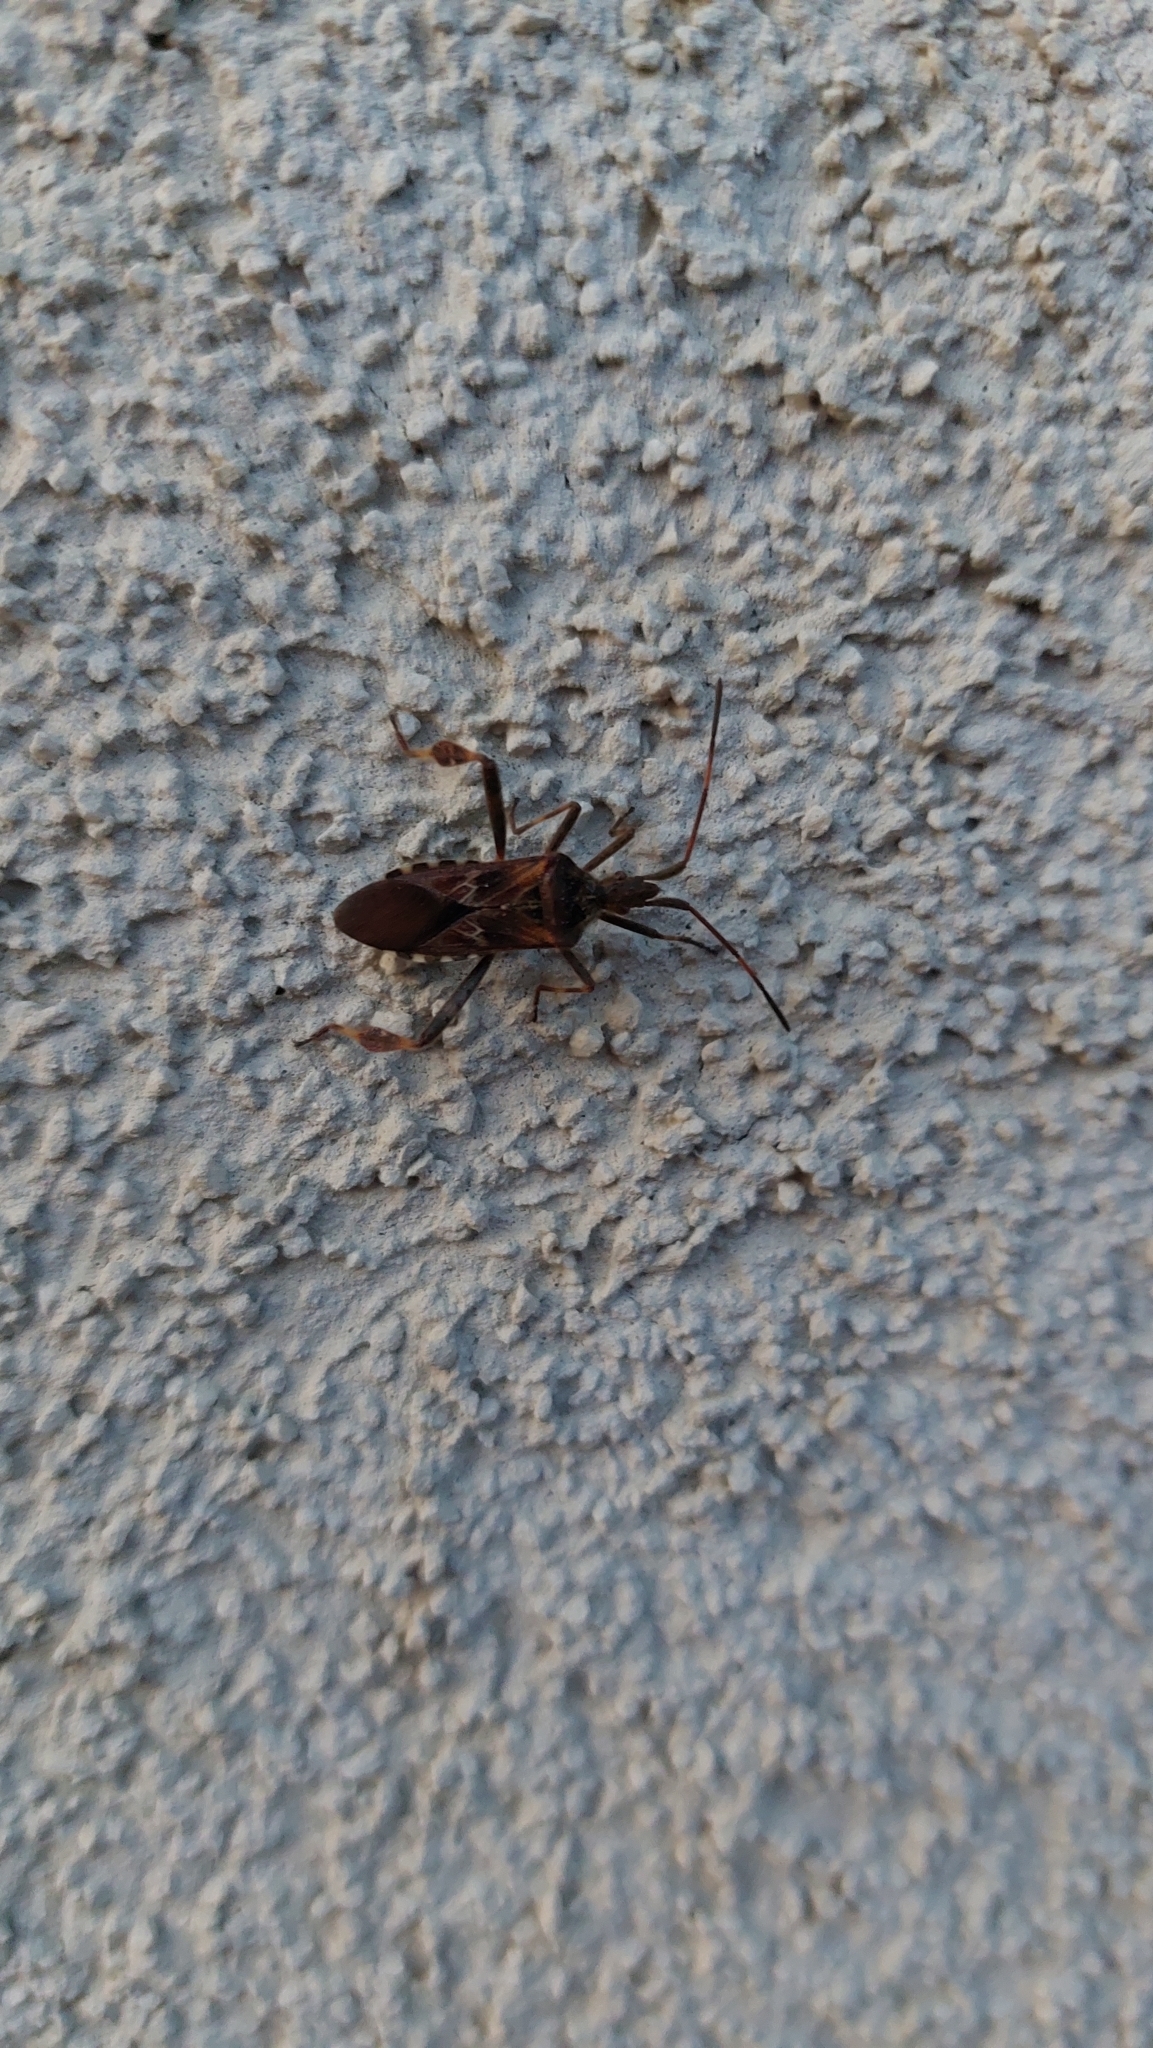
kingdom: Animalia
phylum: Arthropoda
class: Insecta
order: Hemiptera
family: Coreidae
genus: Leptoglossus
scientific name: Leptoglossus occidentalis
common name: Western conifer-seed bug
